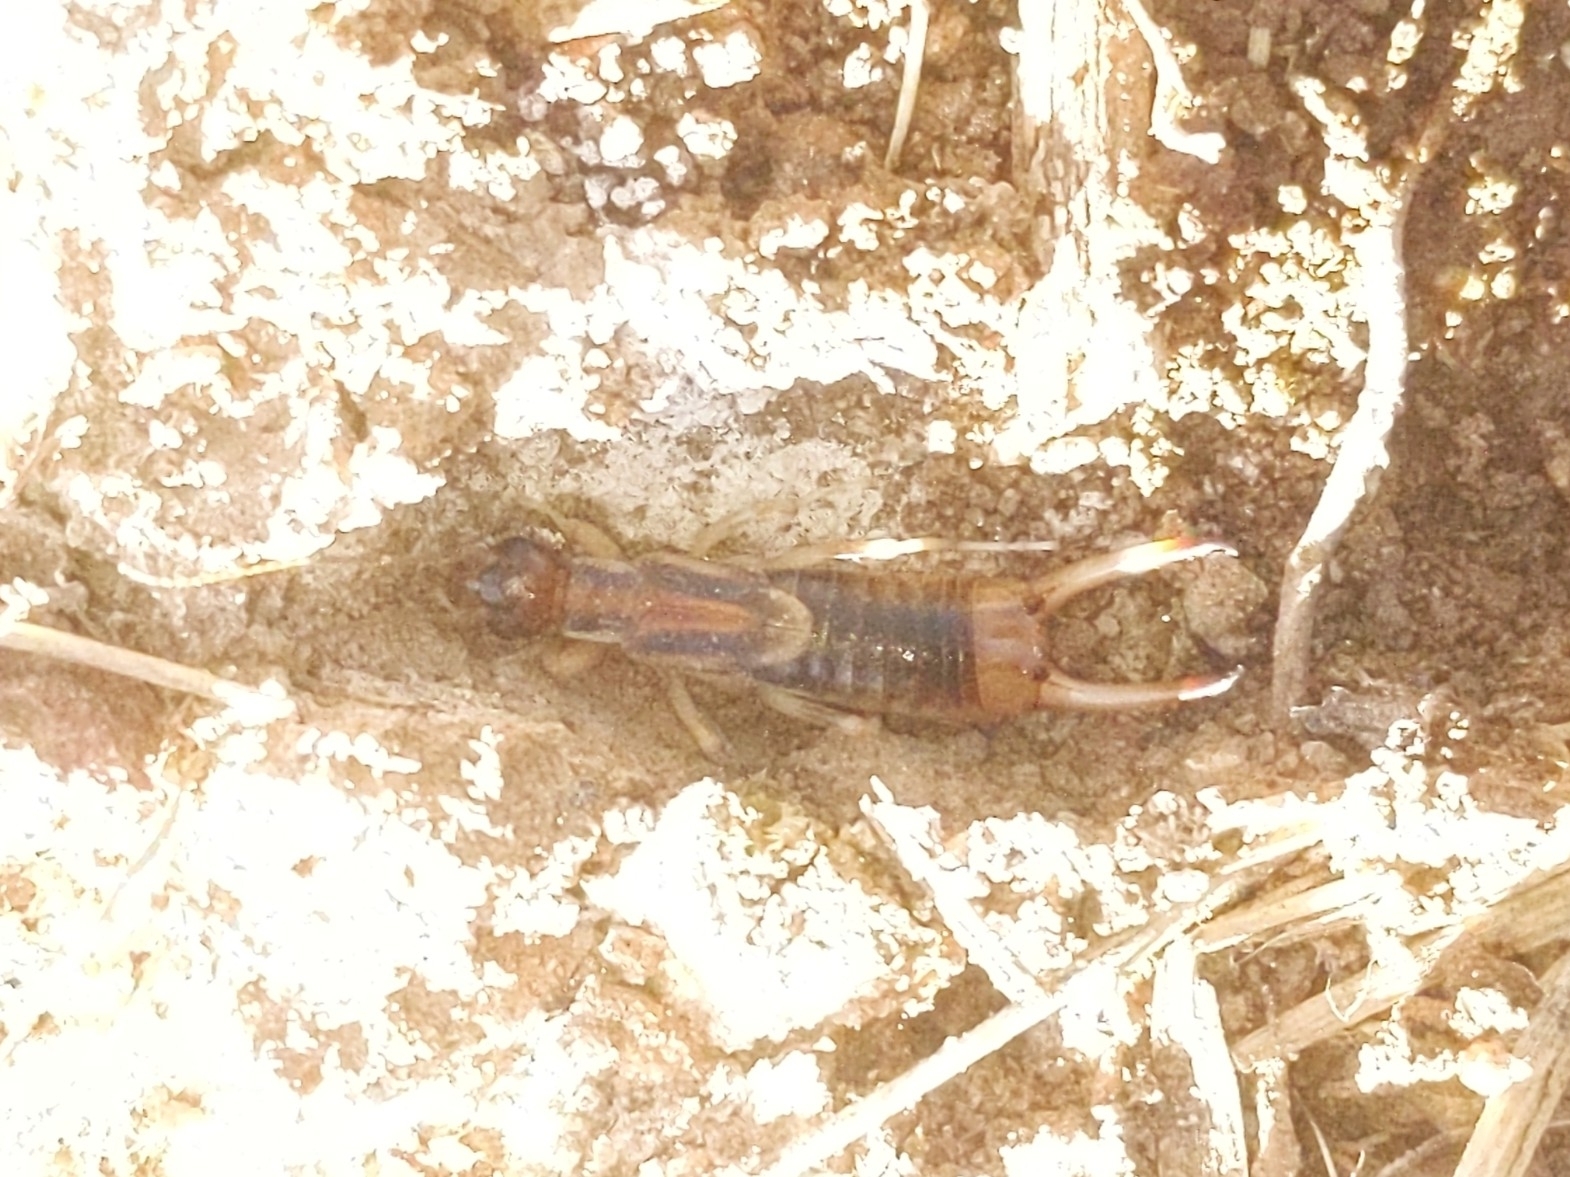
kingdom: Animalia
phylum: Arthropoda
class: Insecta
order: Dermaptera
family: Labiduridae
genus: Labidura
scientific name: Labidura riparia
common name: Striped earwig
